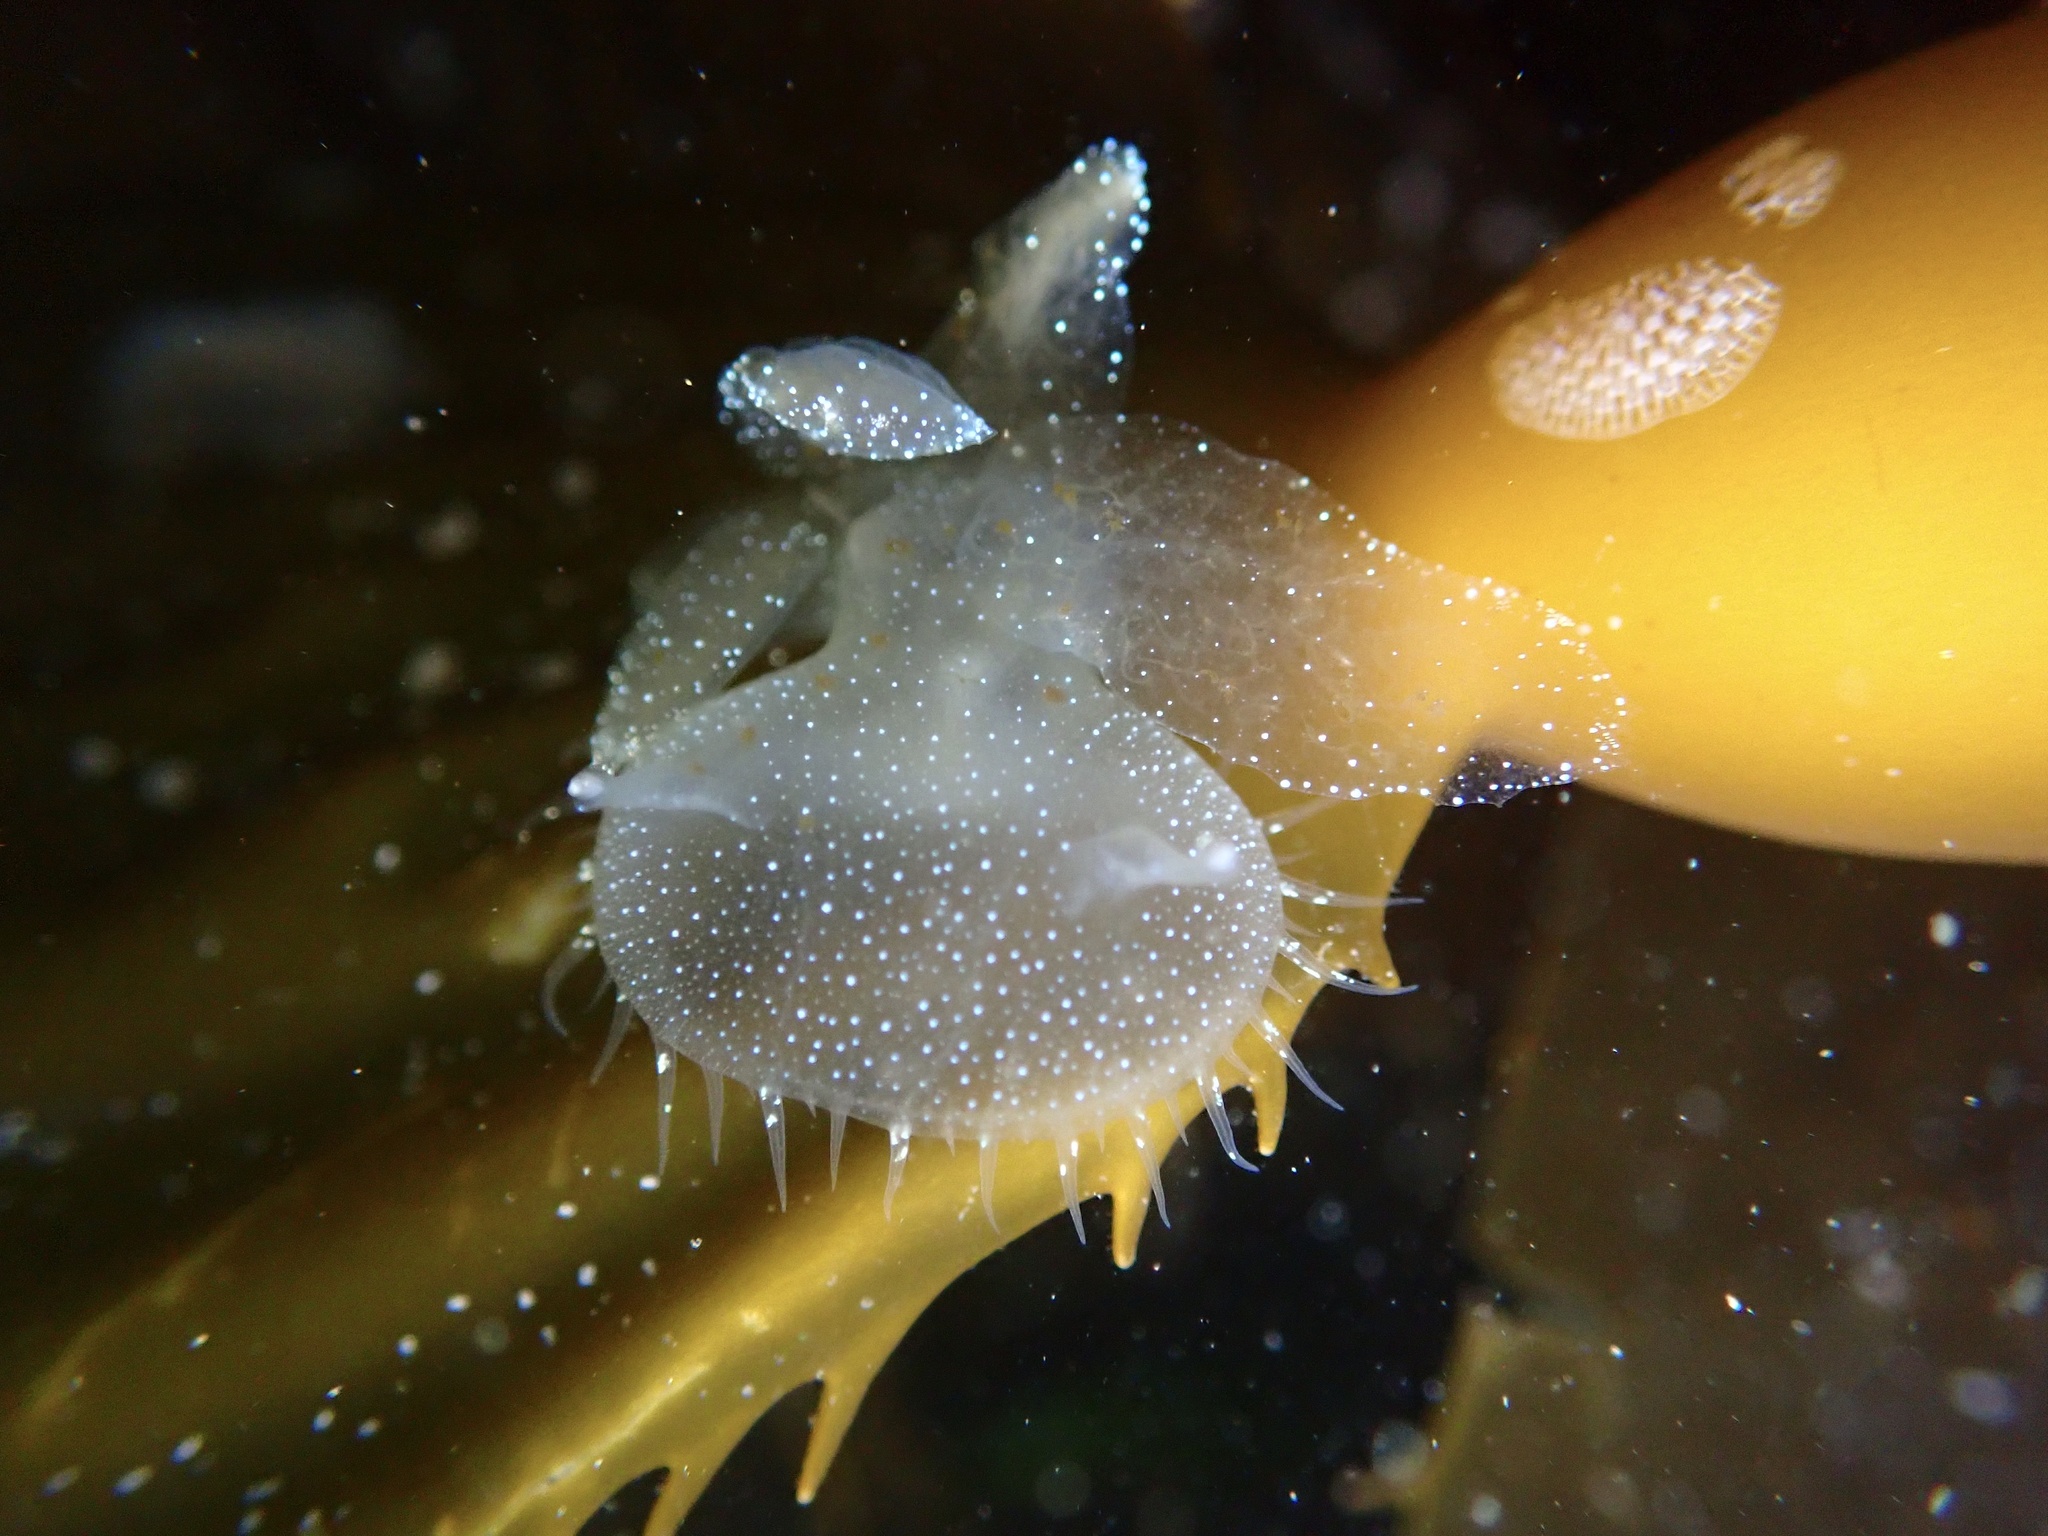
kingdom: Animalia
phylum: Mollusca
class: Gastropoda
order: Nudibranchia
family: Tethydidae
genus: Melibe
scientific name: Melibe leonina
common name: Lion nudibranch
